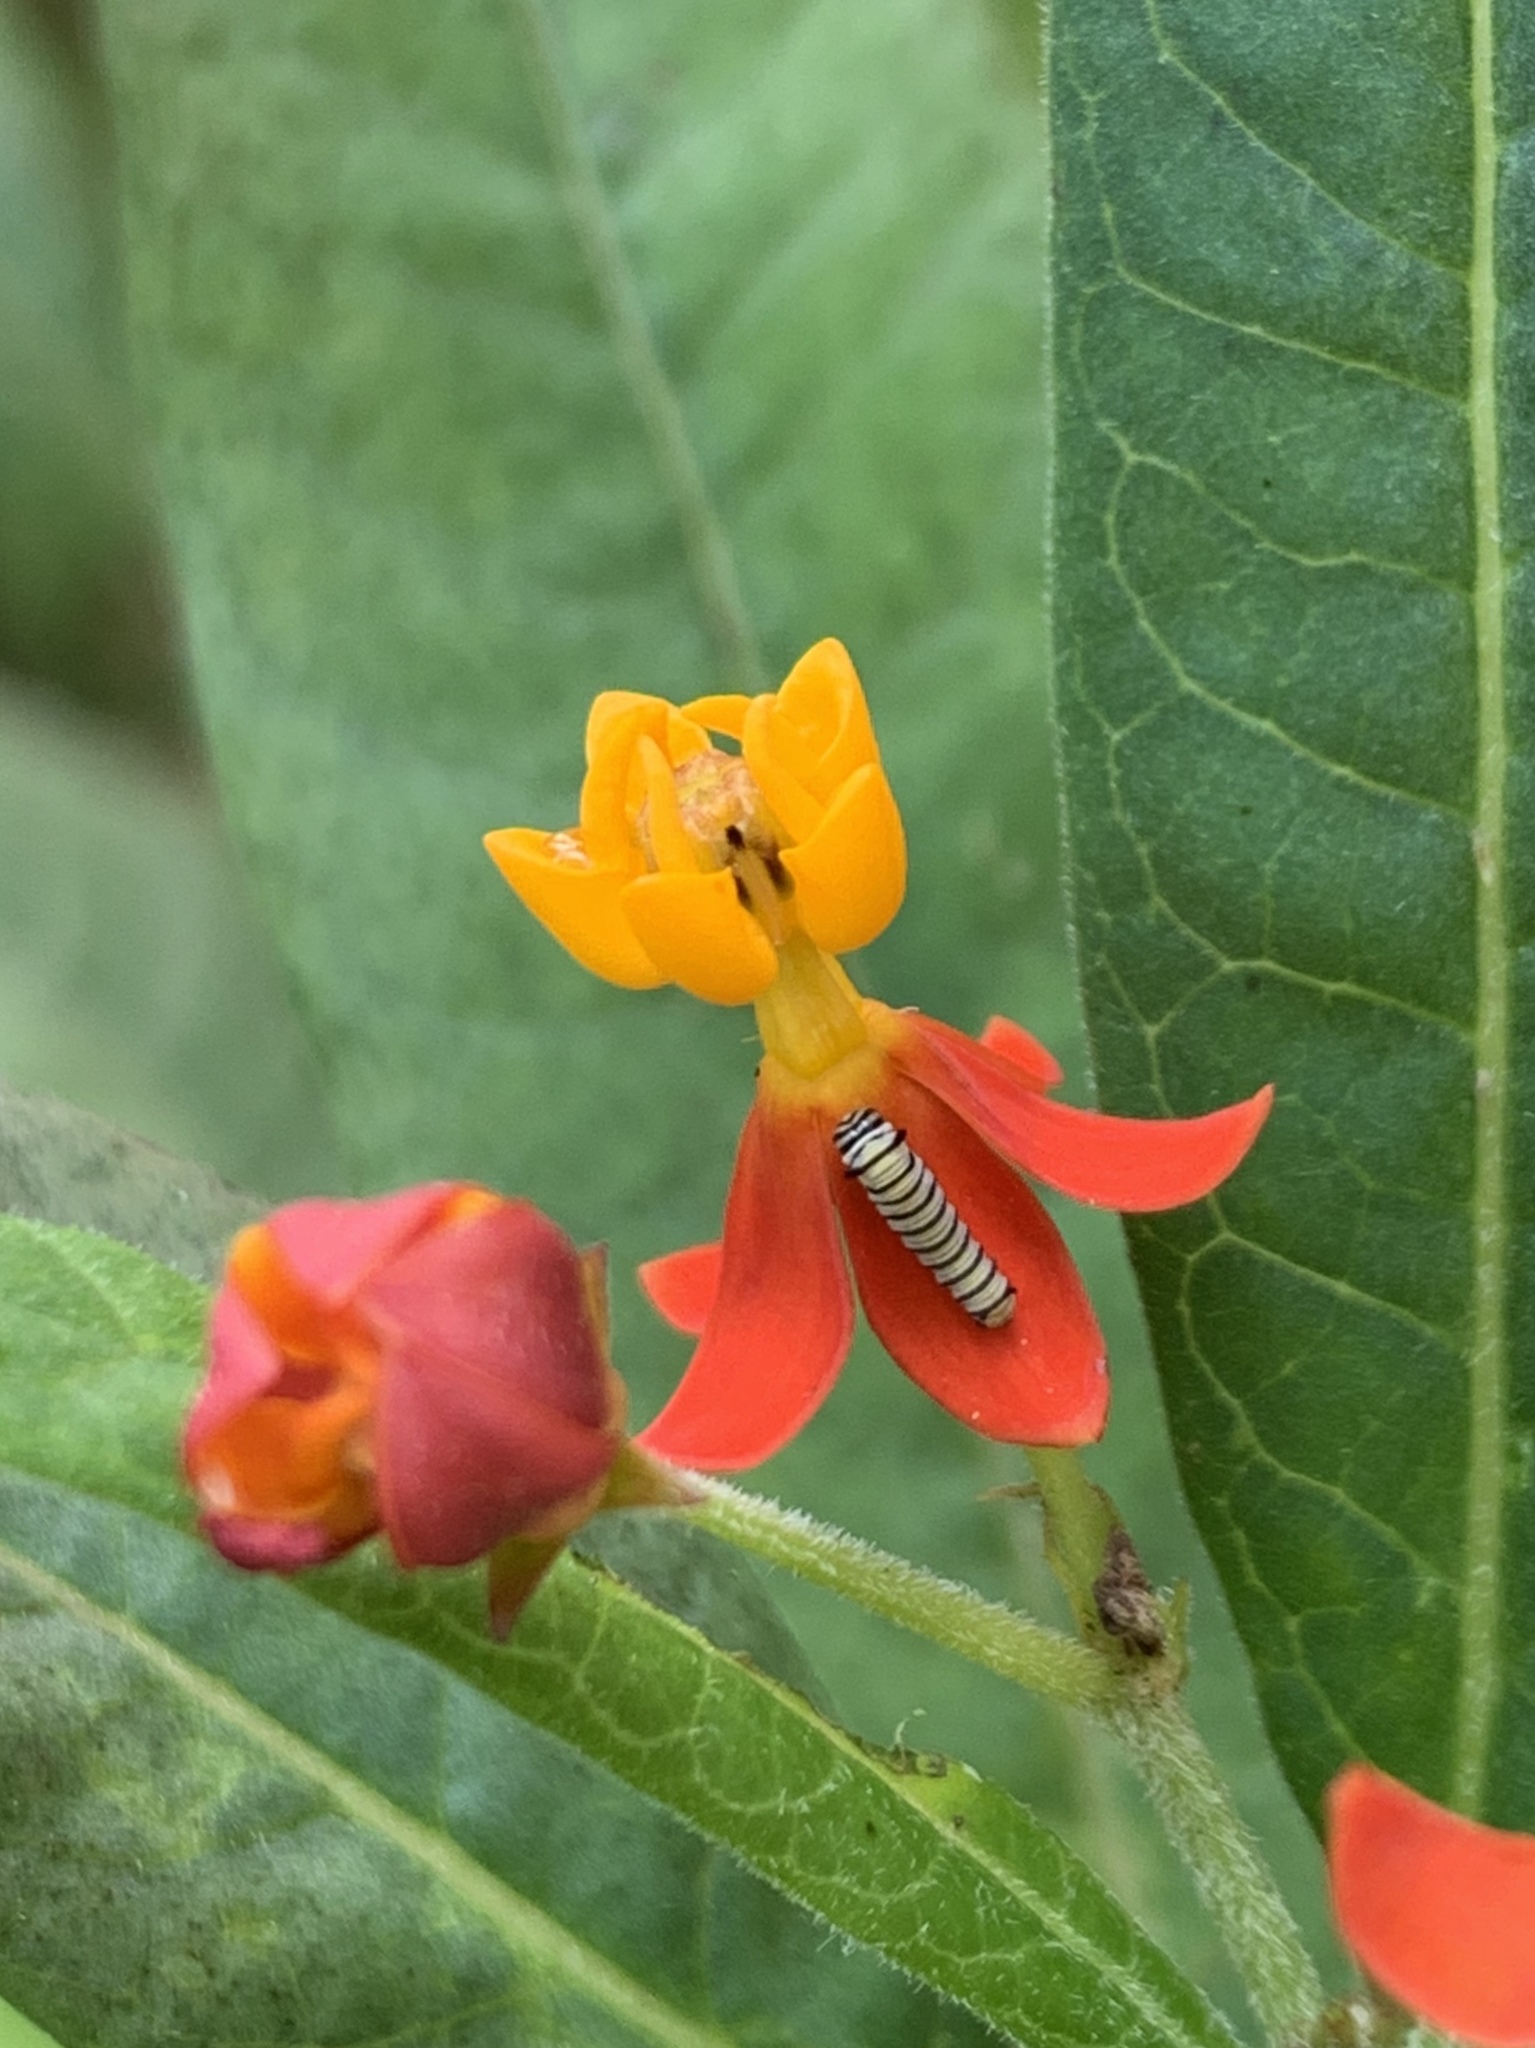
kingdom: Animalia
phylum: Arthropoda
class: Insecta
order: Lepidoptera
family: Nymphalidae
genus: Danaus
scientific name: Danaus plexippus
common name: Monarch
